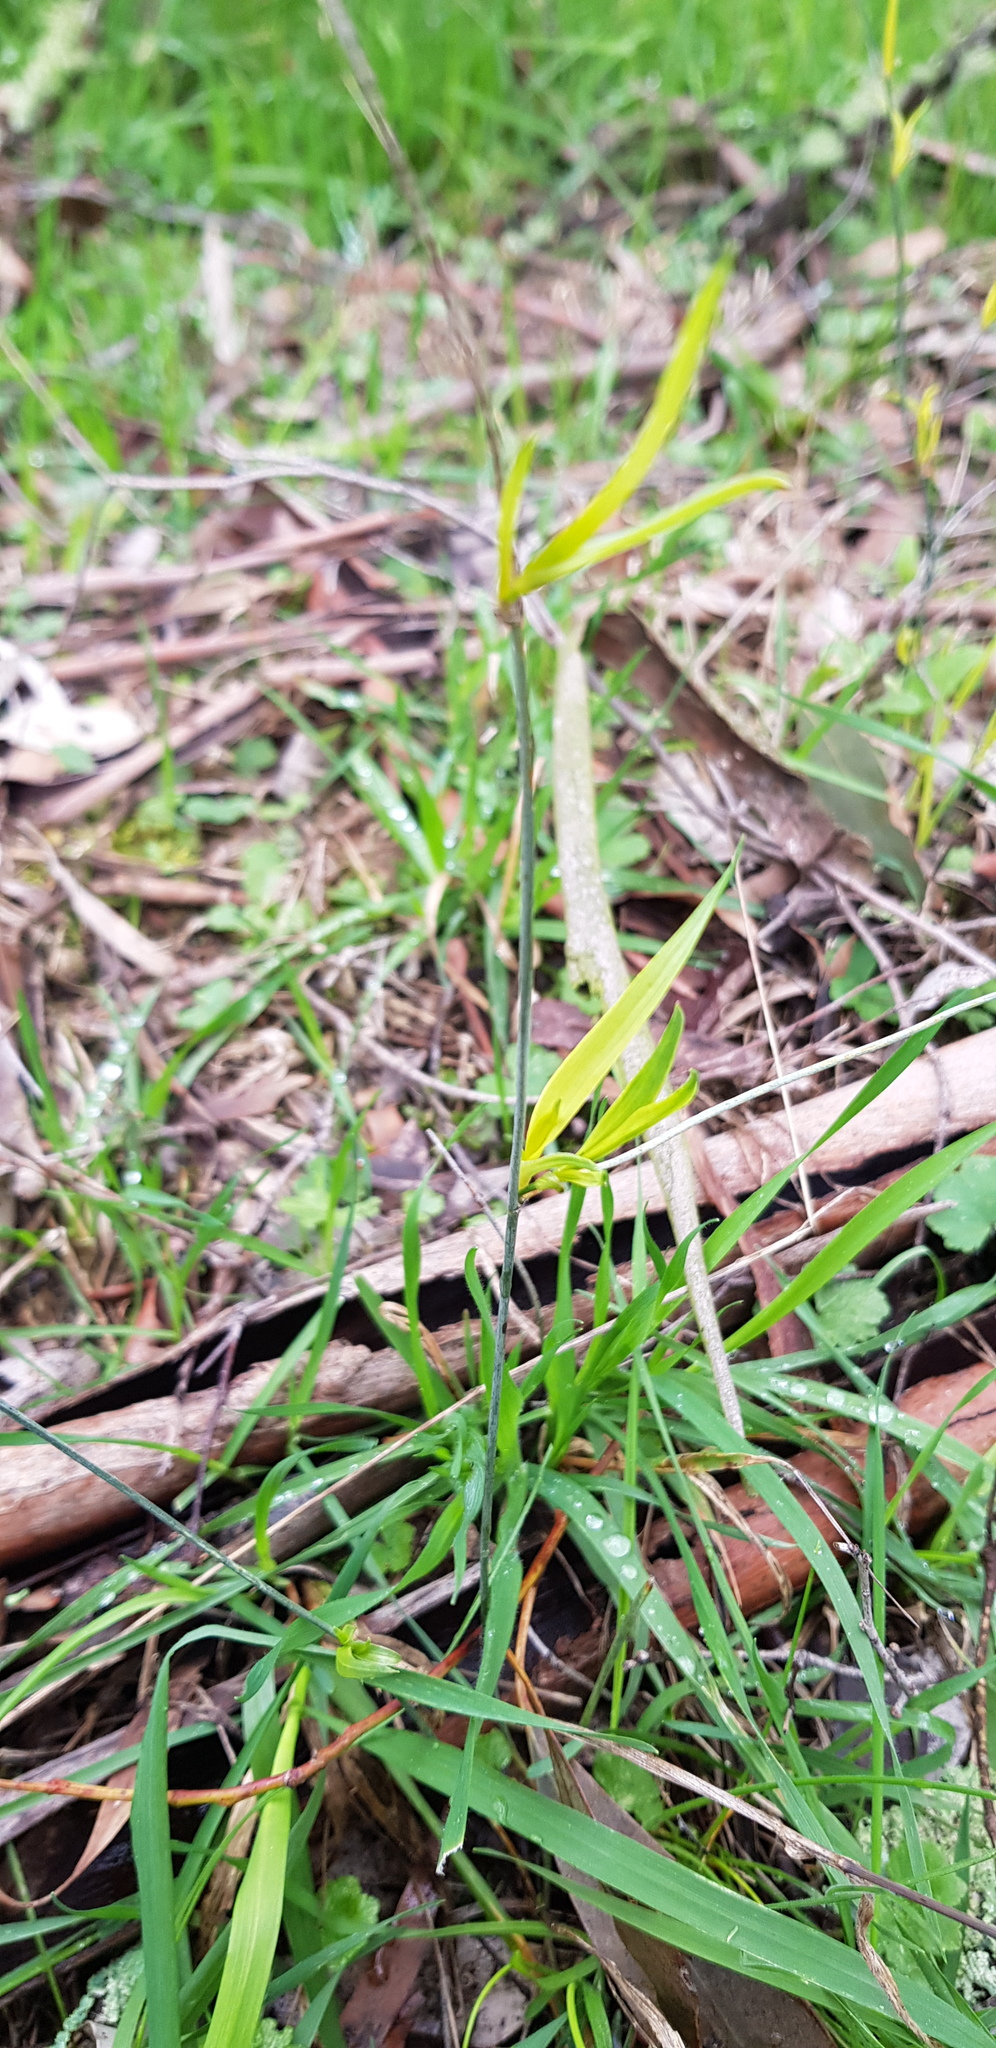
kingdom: Plantae
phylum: Tracheophyta
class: Liliopsida
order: Asparagales
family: Asphodelaceae
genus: Tricoryne
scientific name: Tricoryne elatior
